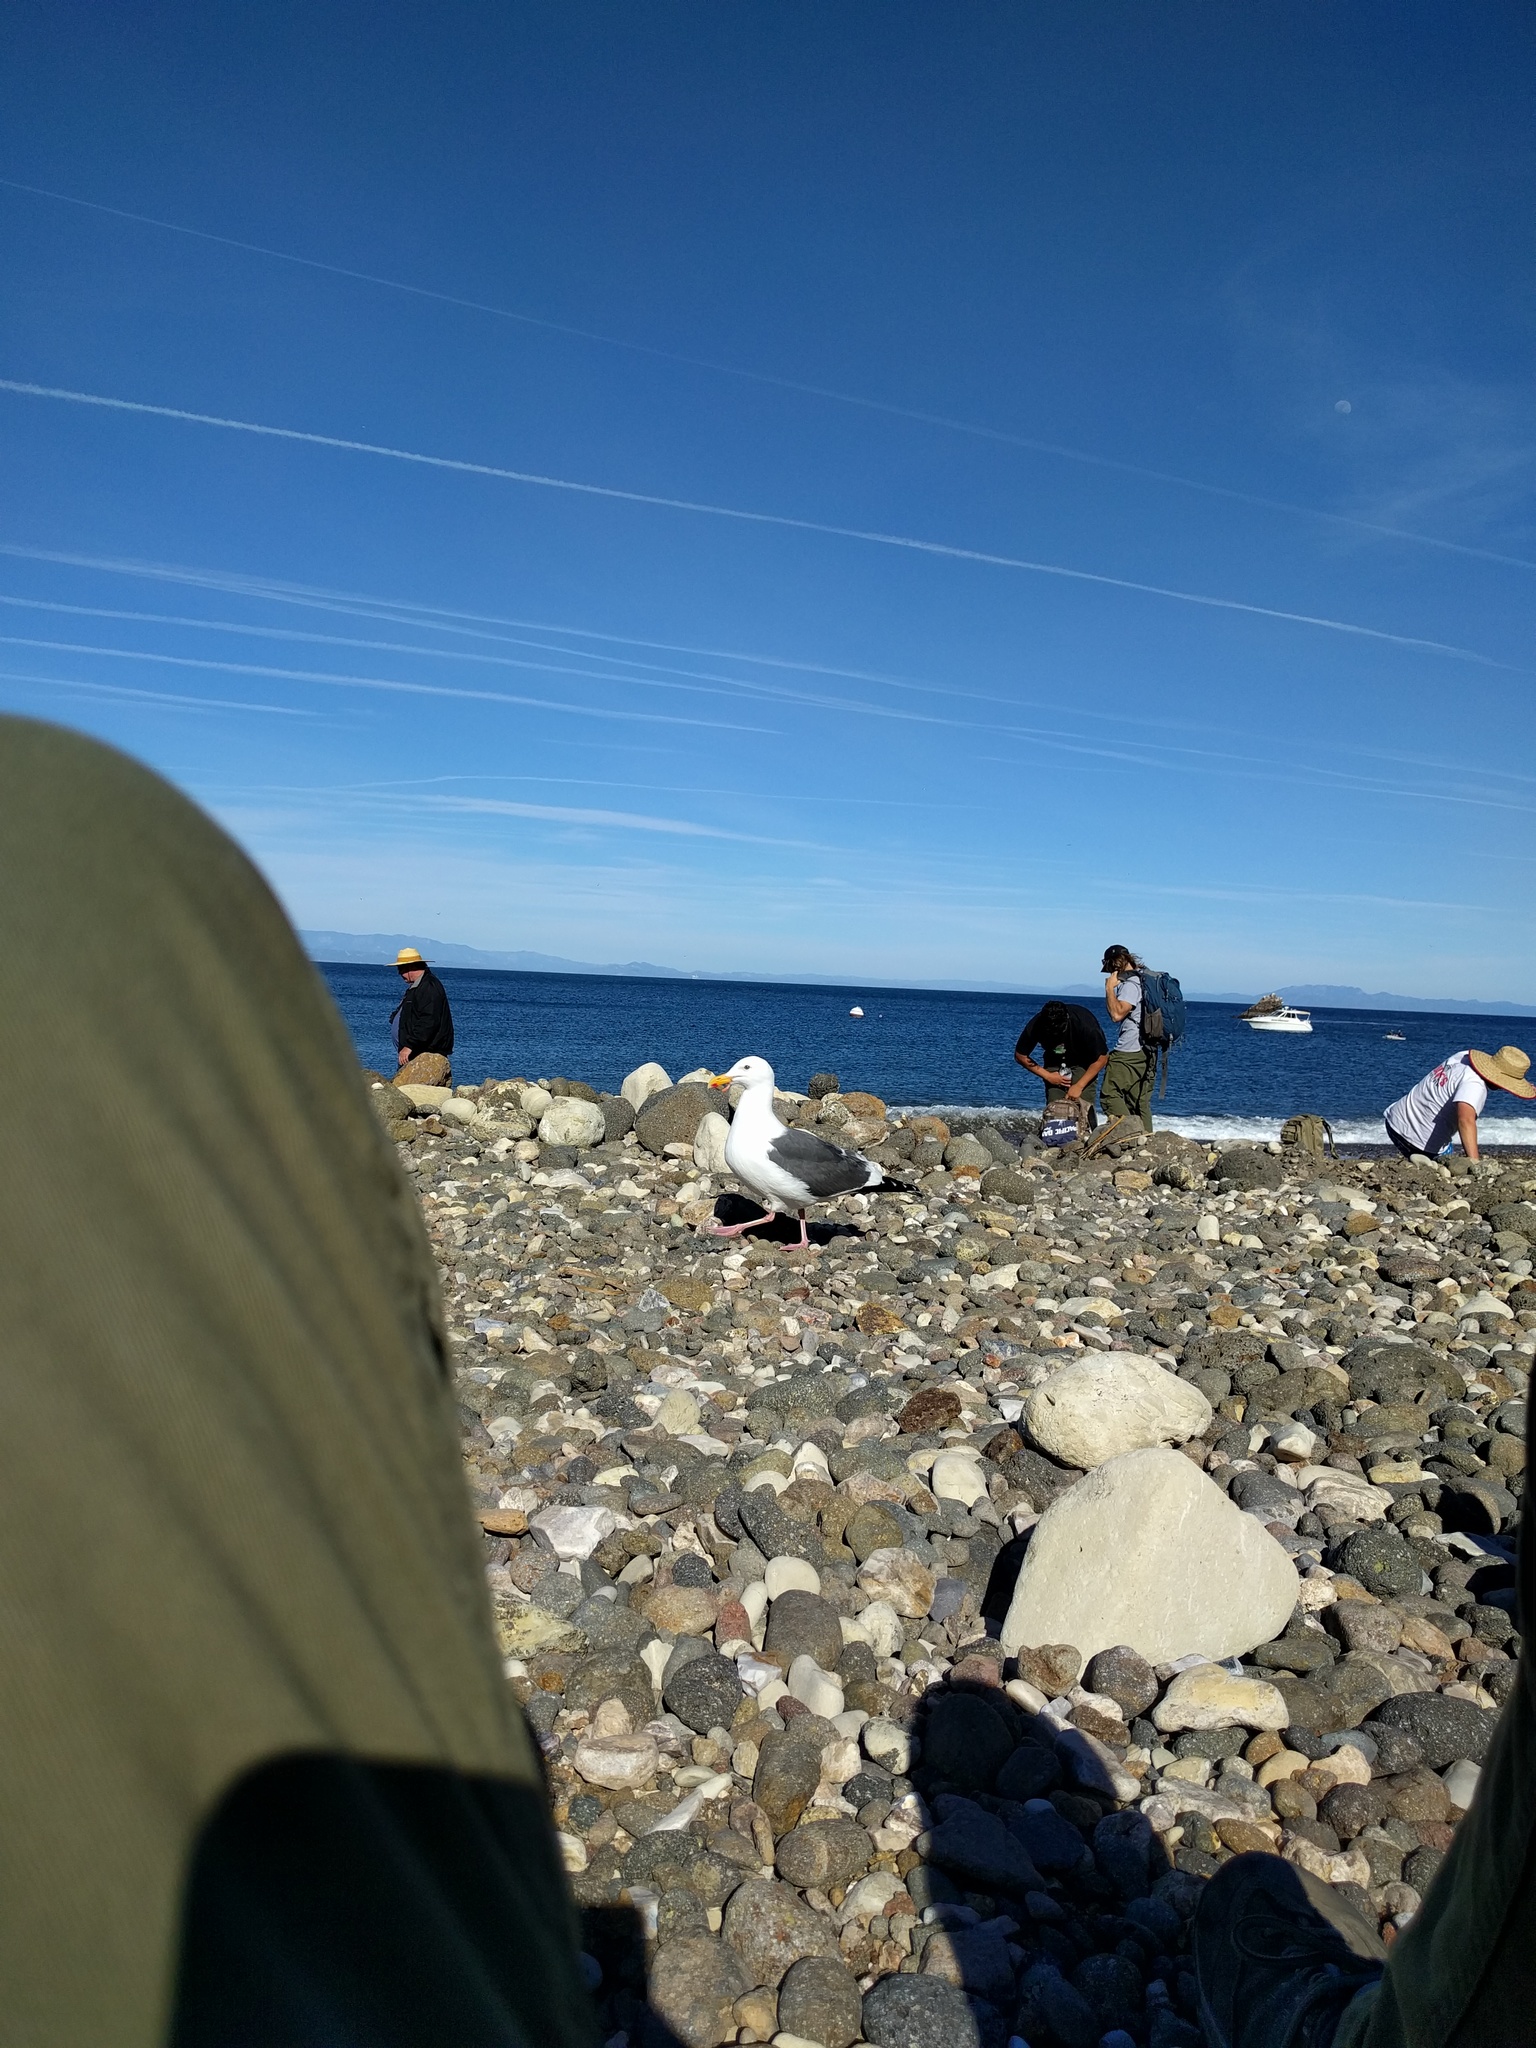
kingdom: Animalia
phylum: Chordata
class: Aves
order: Charadriiformes
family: Laridae
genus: Larus
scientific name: Larus occidentalis
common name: Western gull
